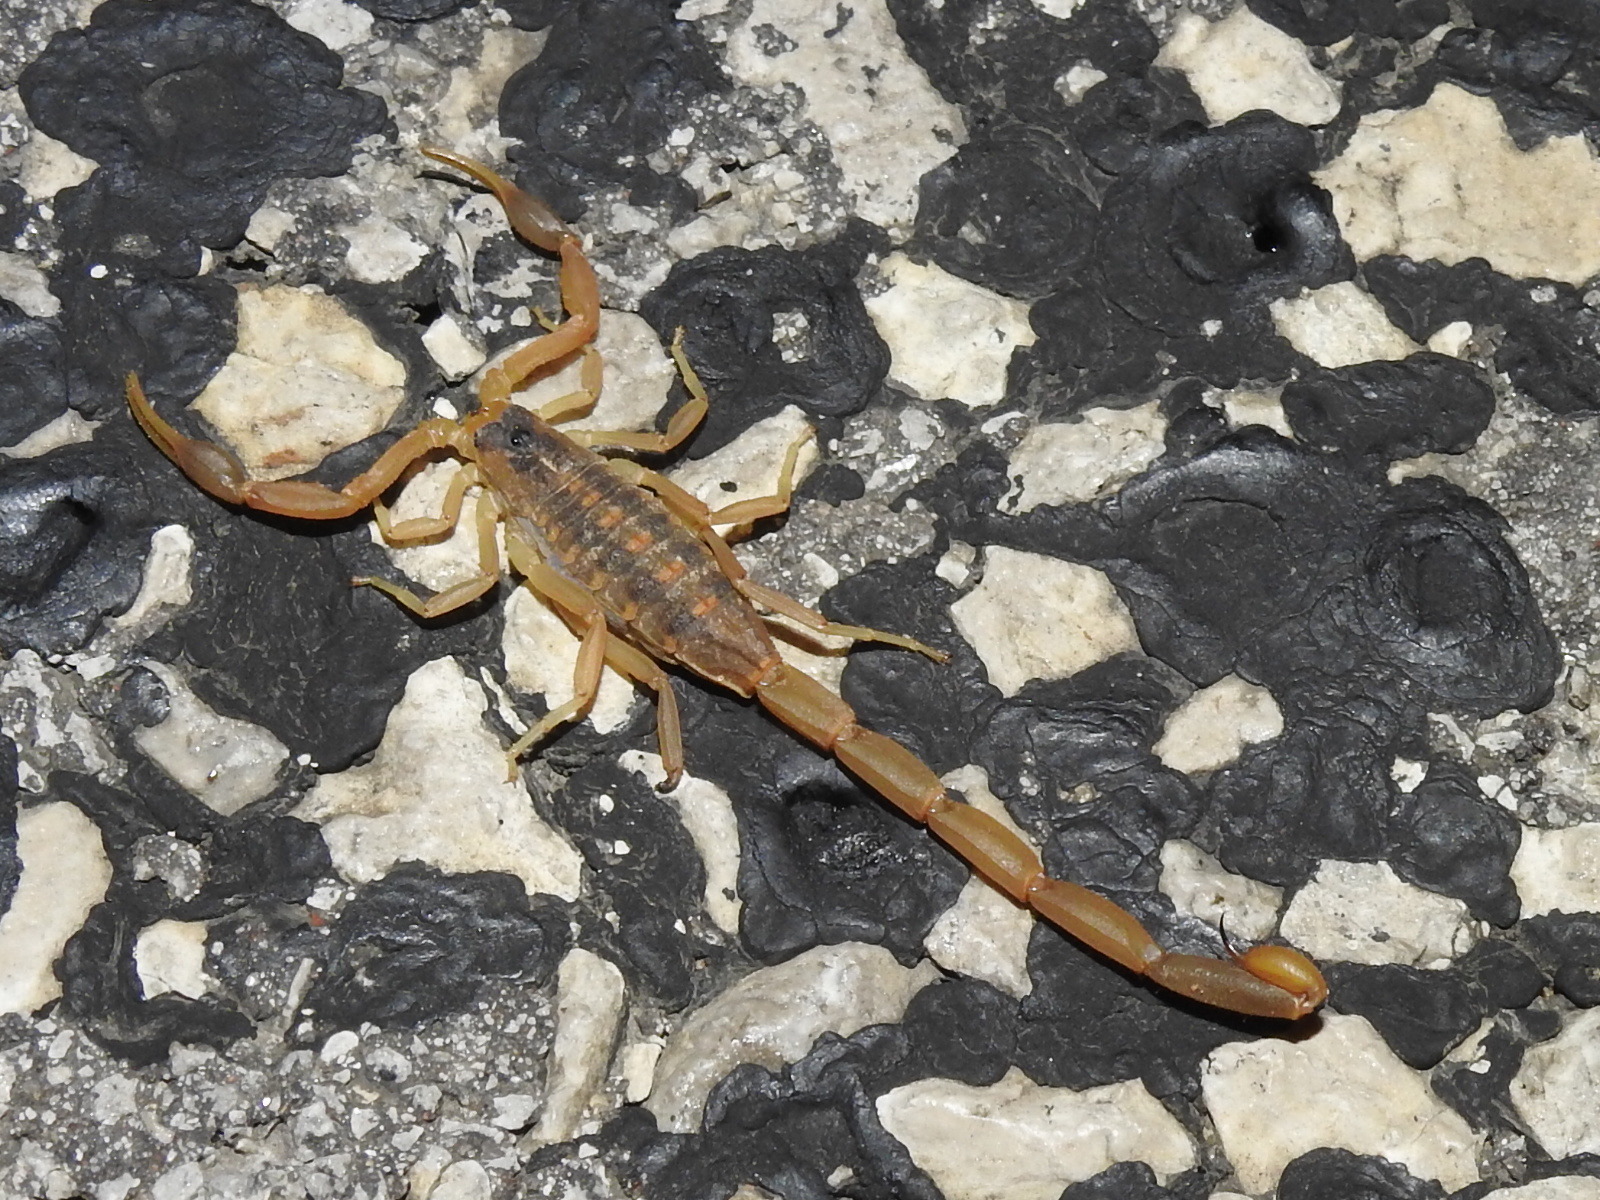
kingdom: Animalia
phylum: Arthropoda
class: Arachnida
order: Scorpiones
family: Buthidae
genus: Centruroides
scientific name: Centruroides vittatus
